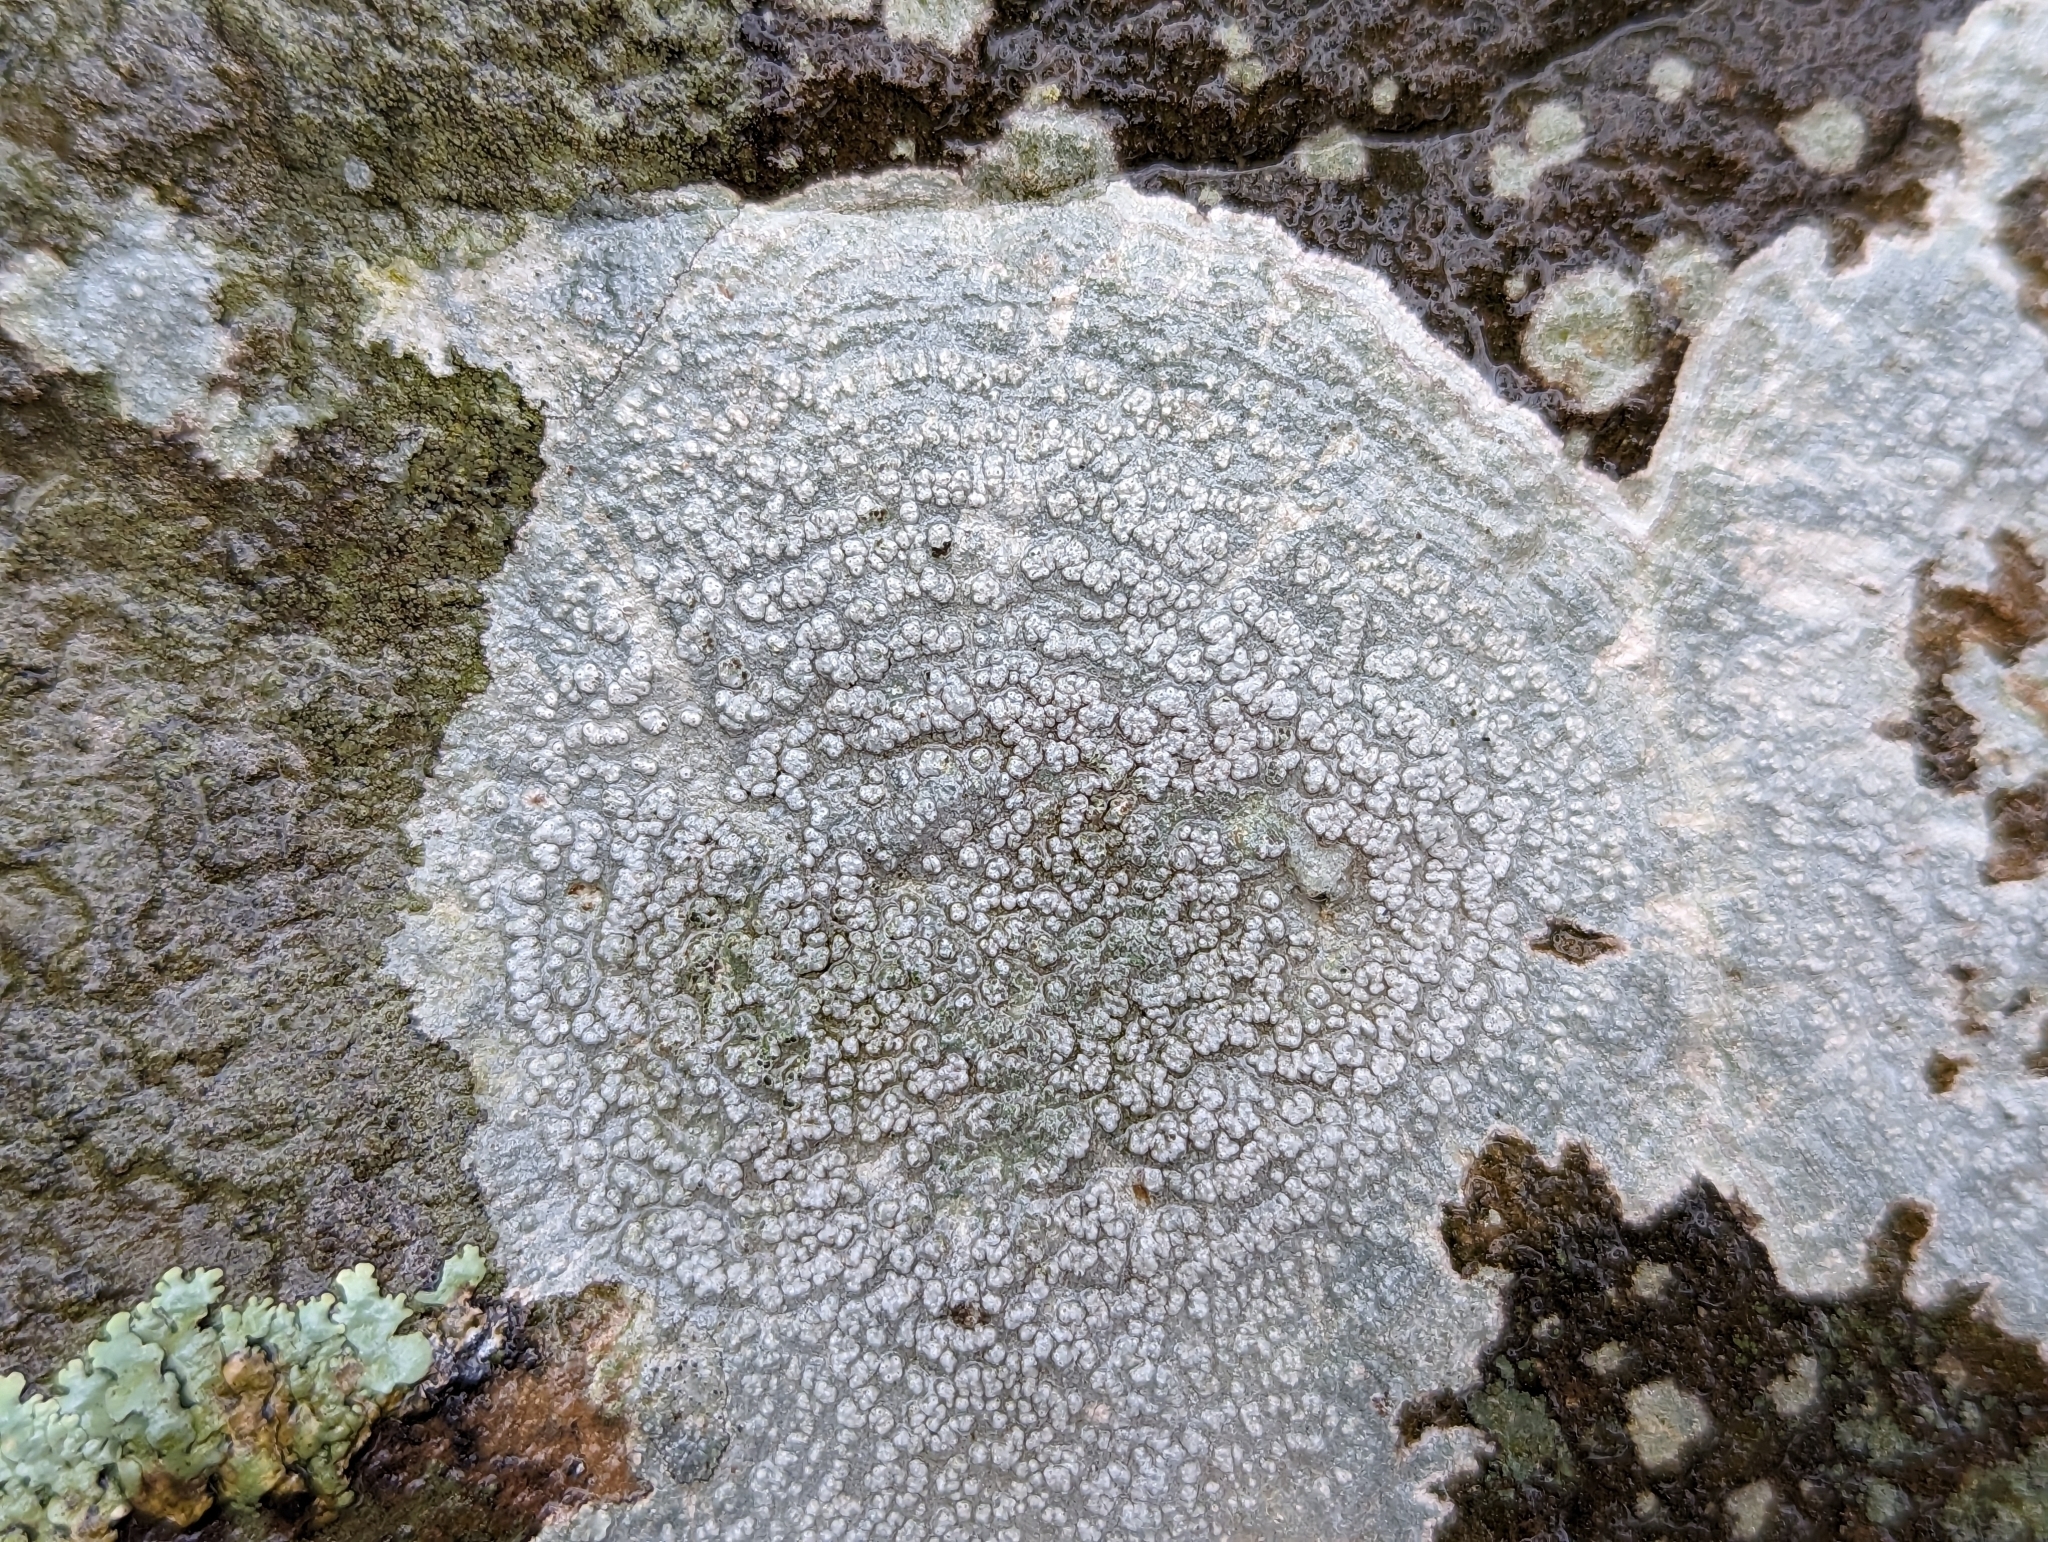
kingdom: Fungi
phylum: Ascomycota
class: Lecanoromycetes
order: Pertusariales
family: Pertusariaceae
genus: Pertusaria
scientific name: Pertusaria plittiana
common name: Rock wart lichen
